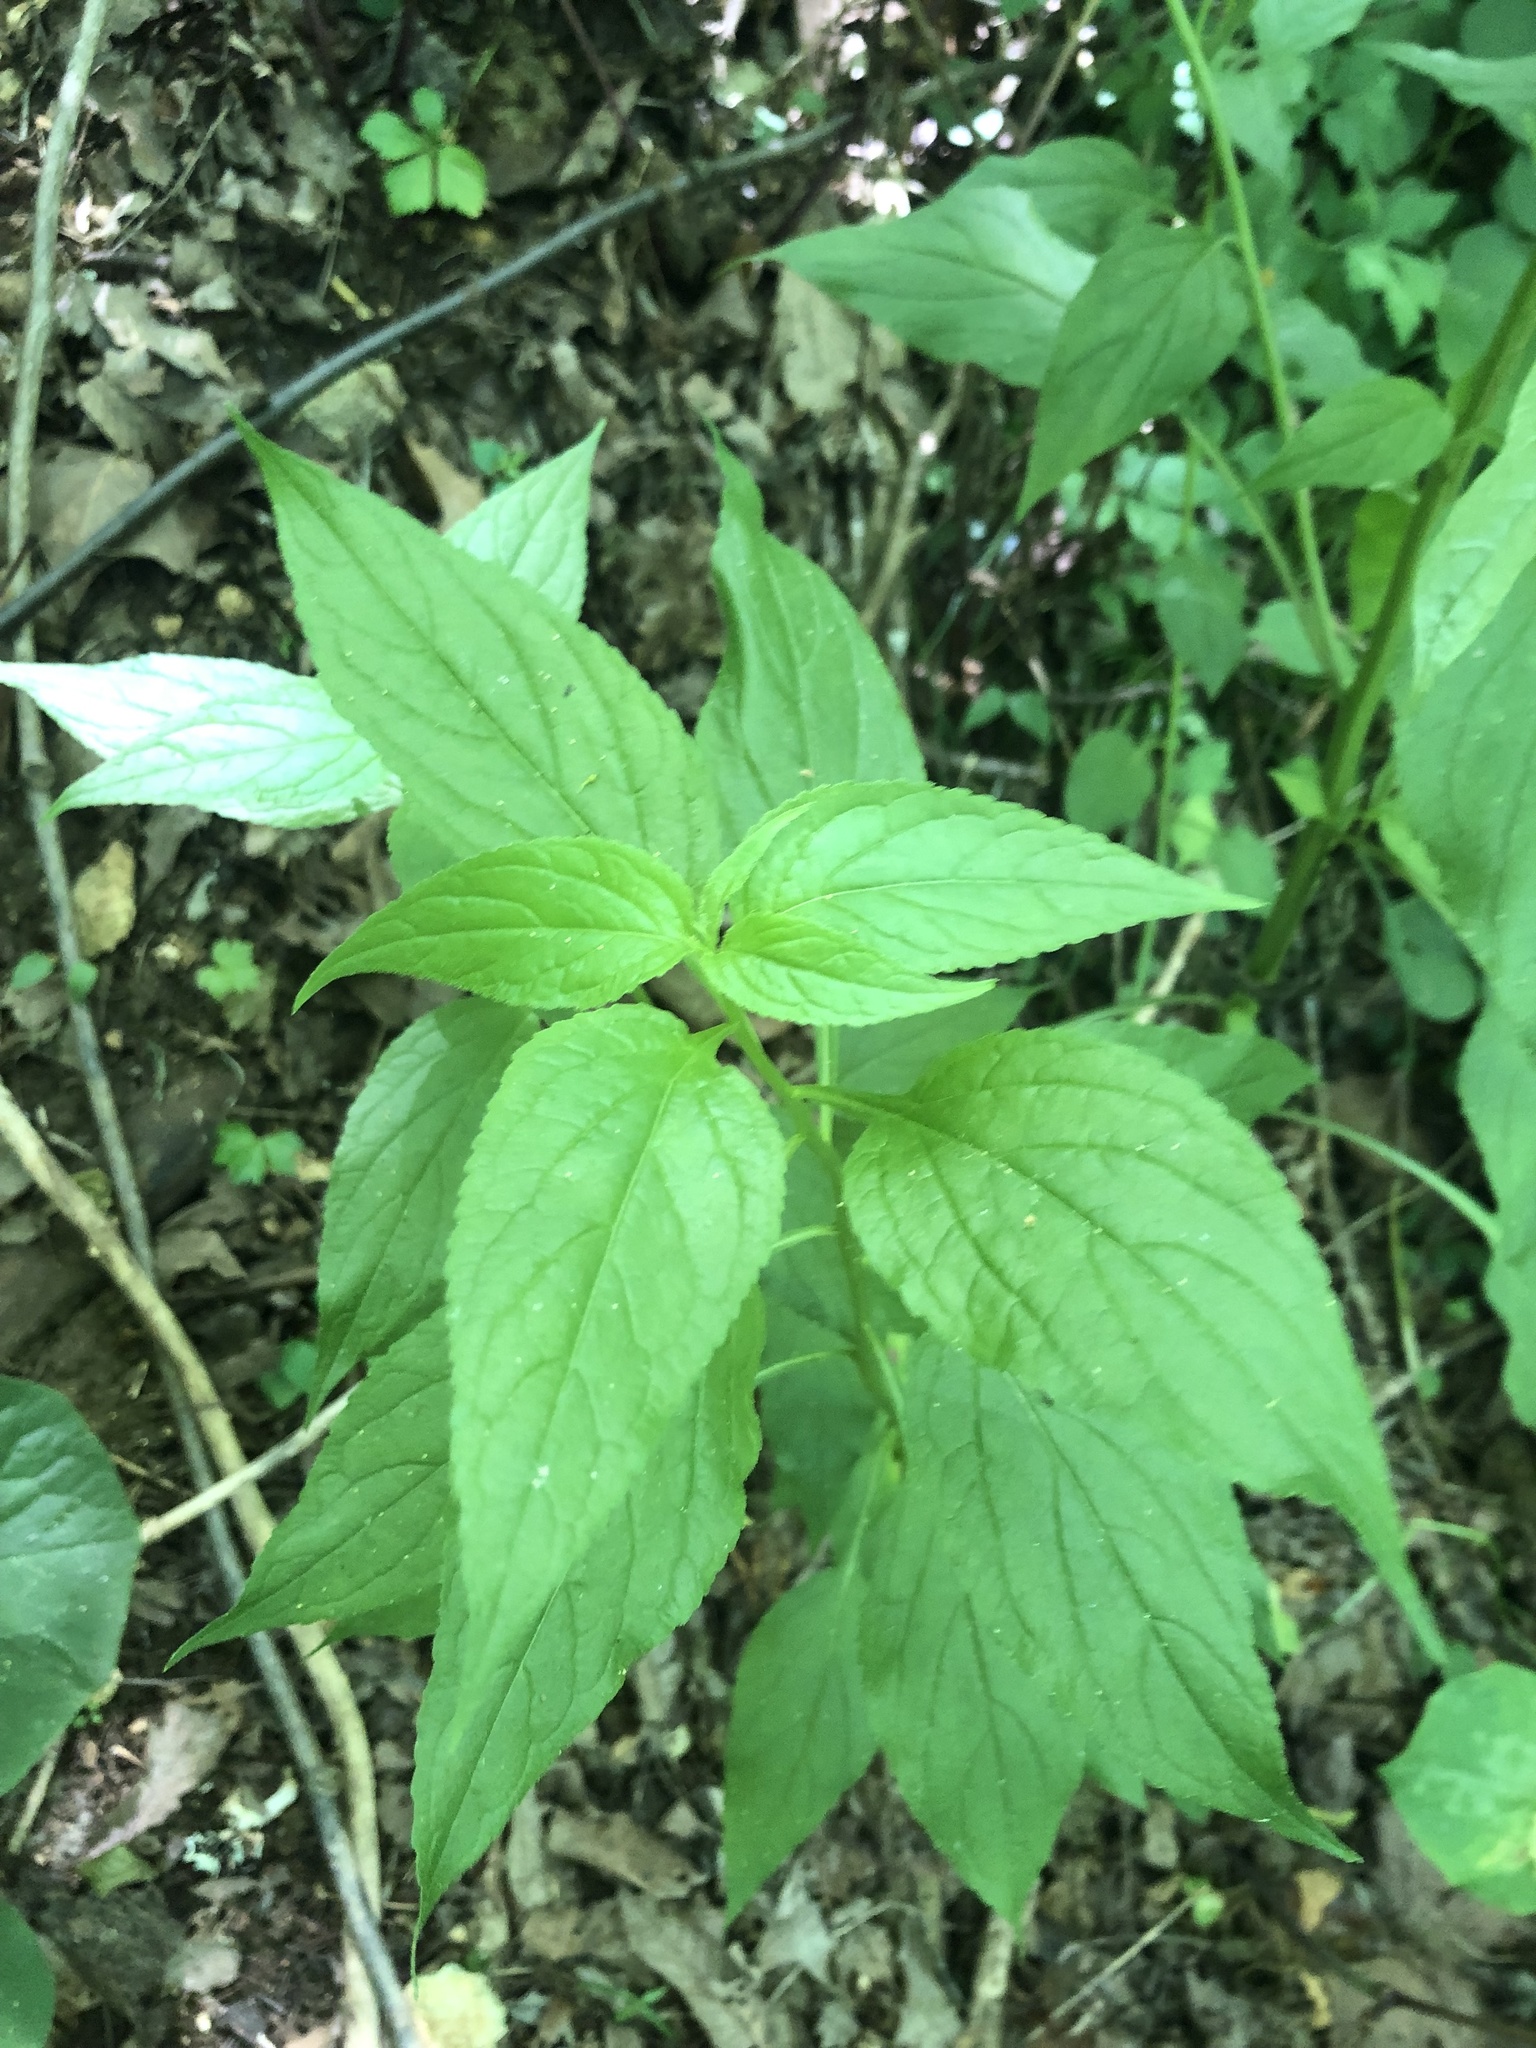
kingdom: Plantae
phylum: Tracheophyta
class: Magnoliopsida
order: Asterales
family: Campanulaceae
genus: Campanulastrum
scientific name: Campanulastrum americanum
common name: American bellflower
